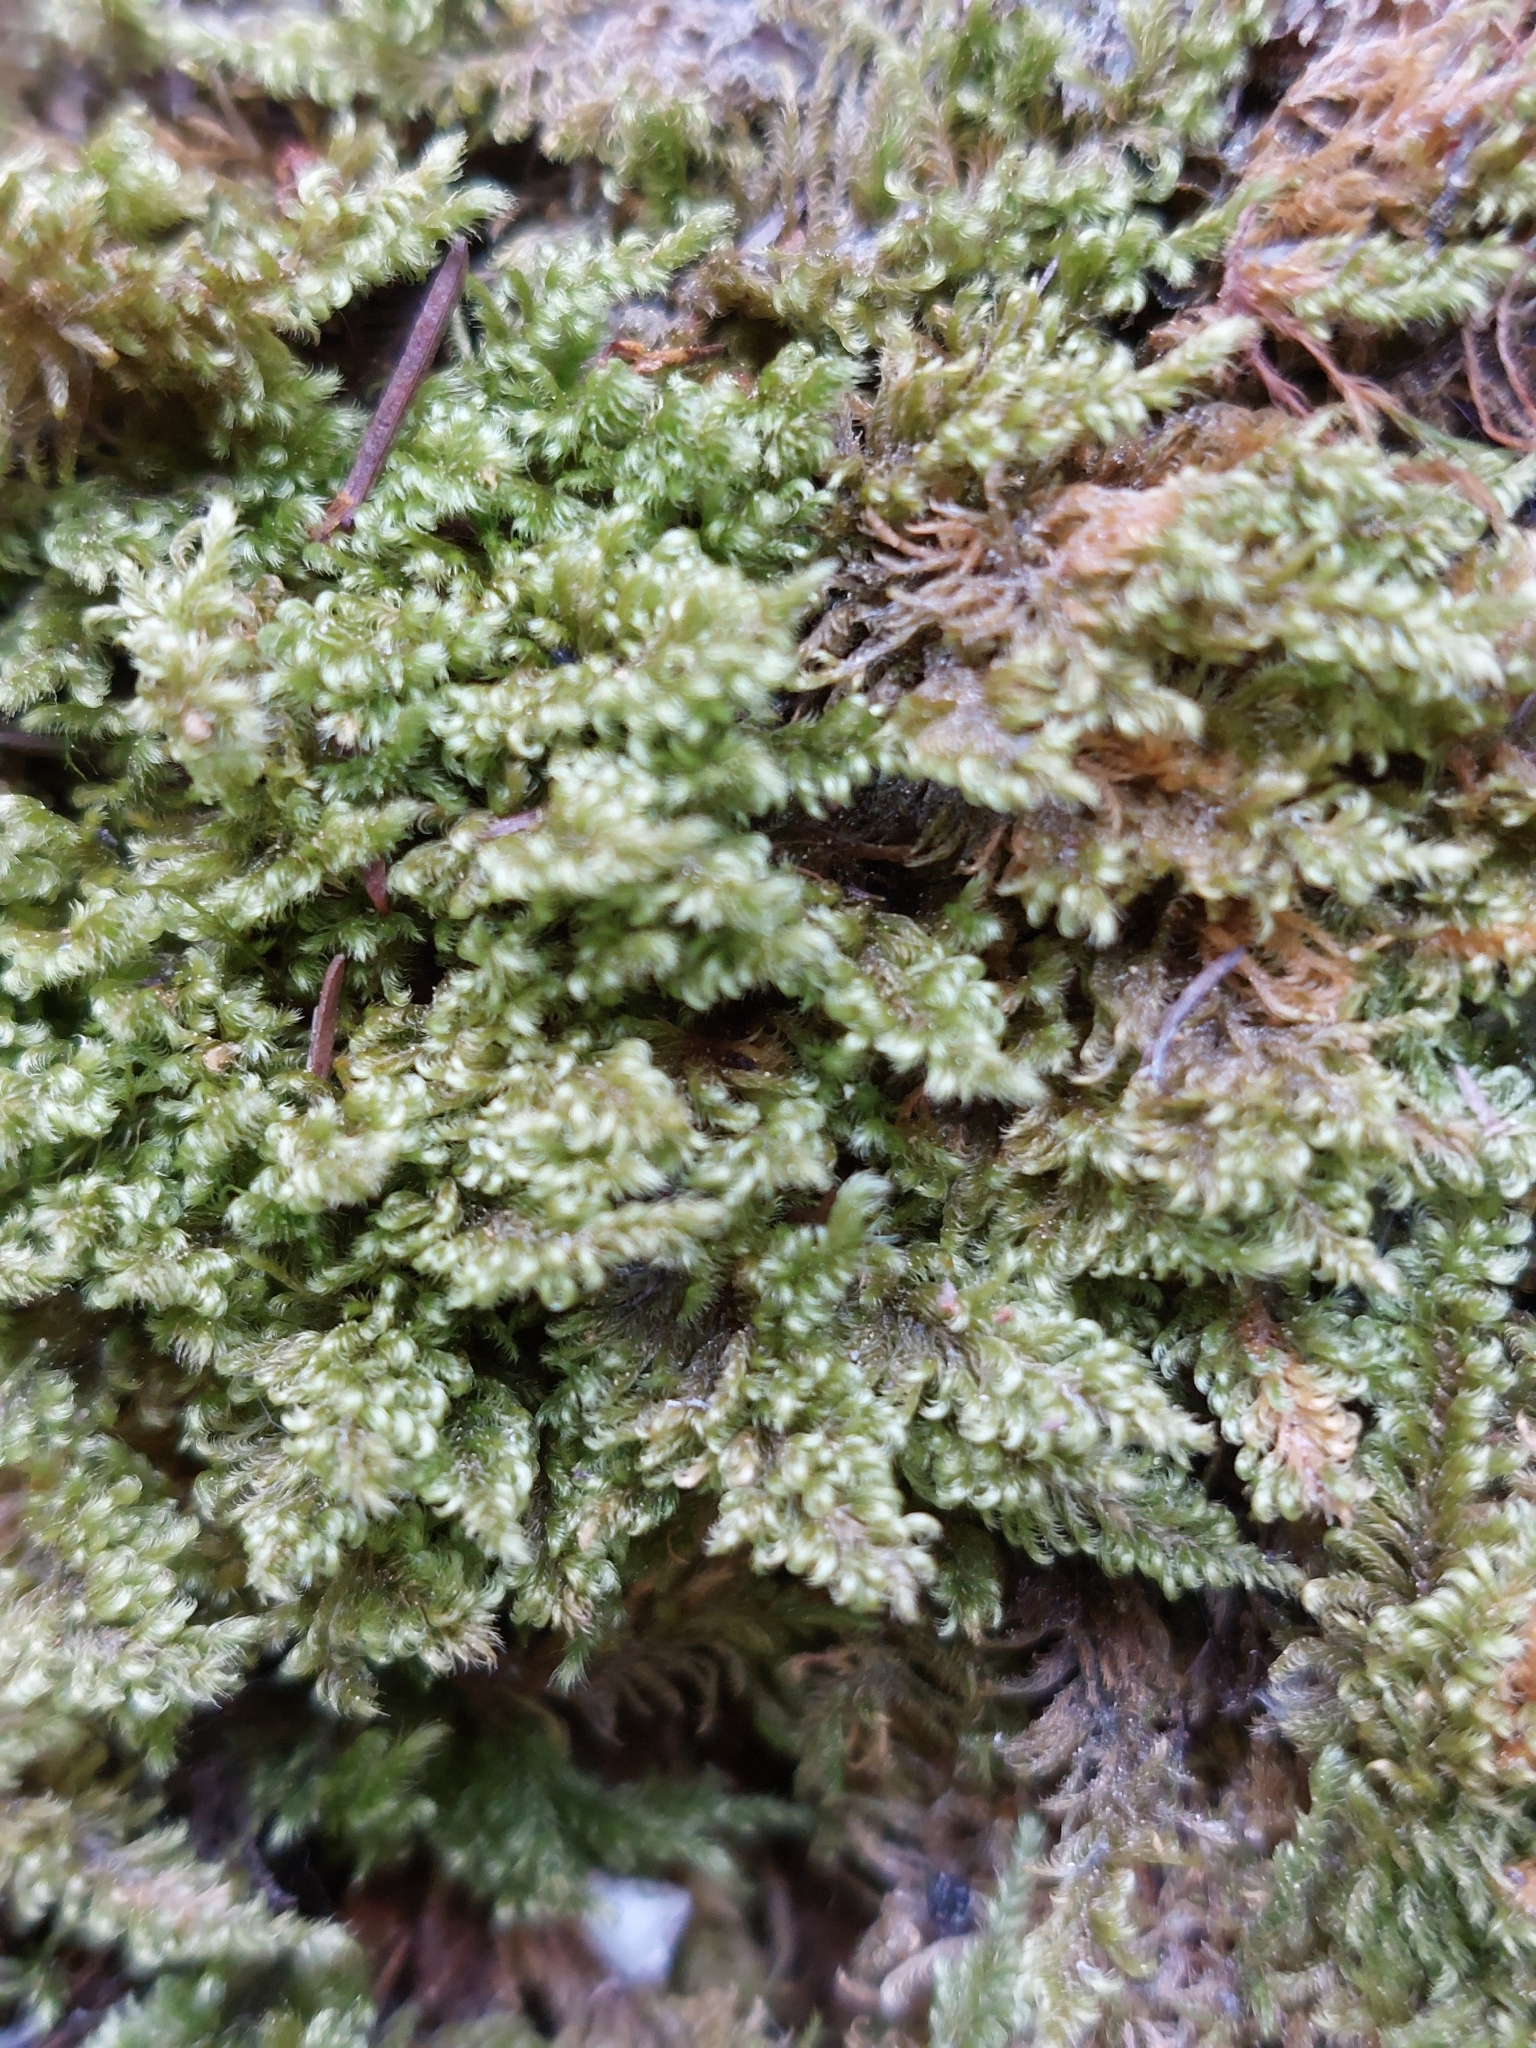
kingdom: Plantae
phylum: Bryophyta
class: Bryopsida
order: Hypnales
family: Myuriaceae
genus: Ctenidium
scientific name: Ctenidium molluscum
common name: Chalk comb-moss
